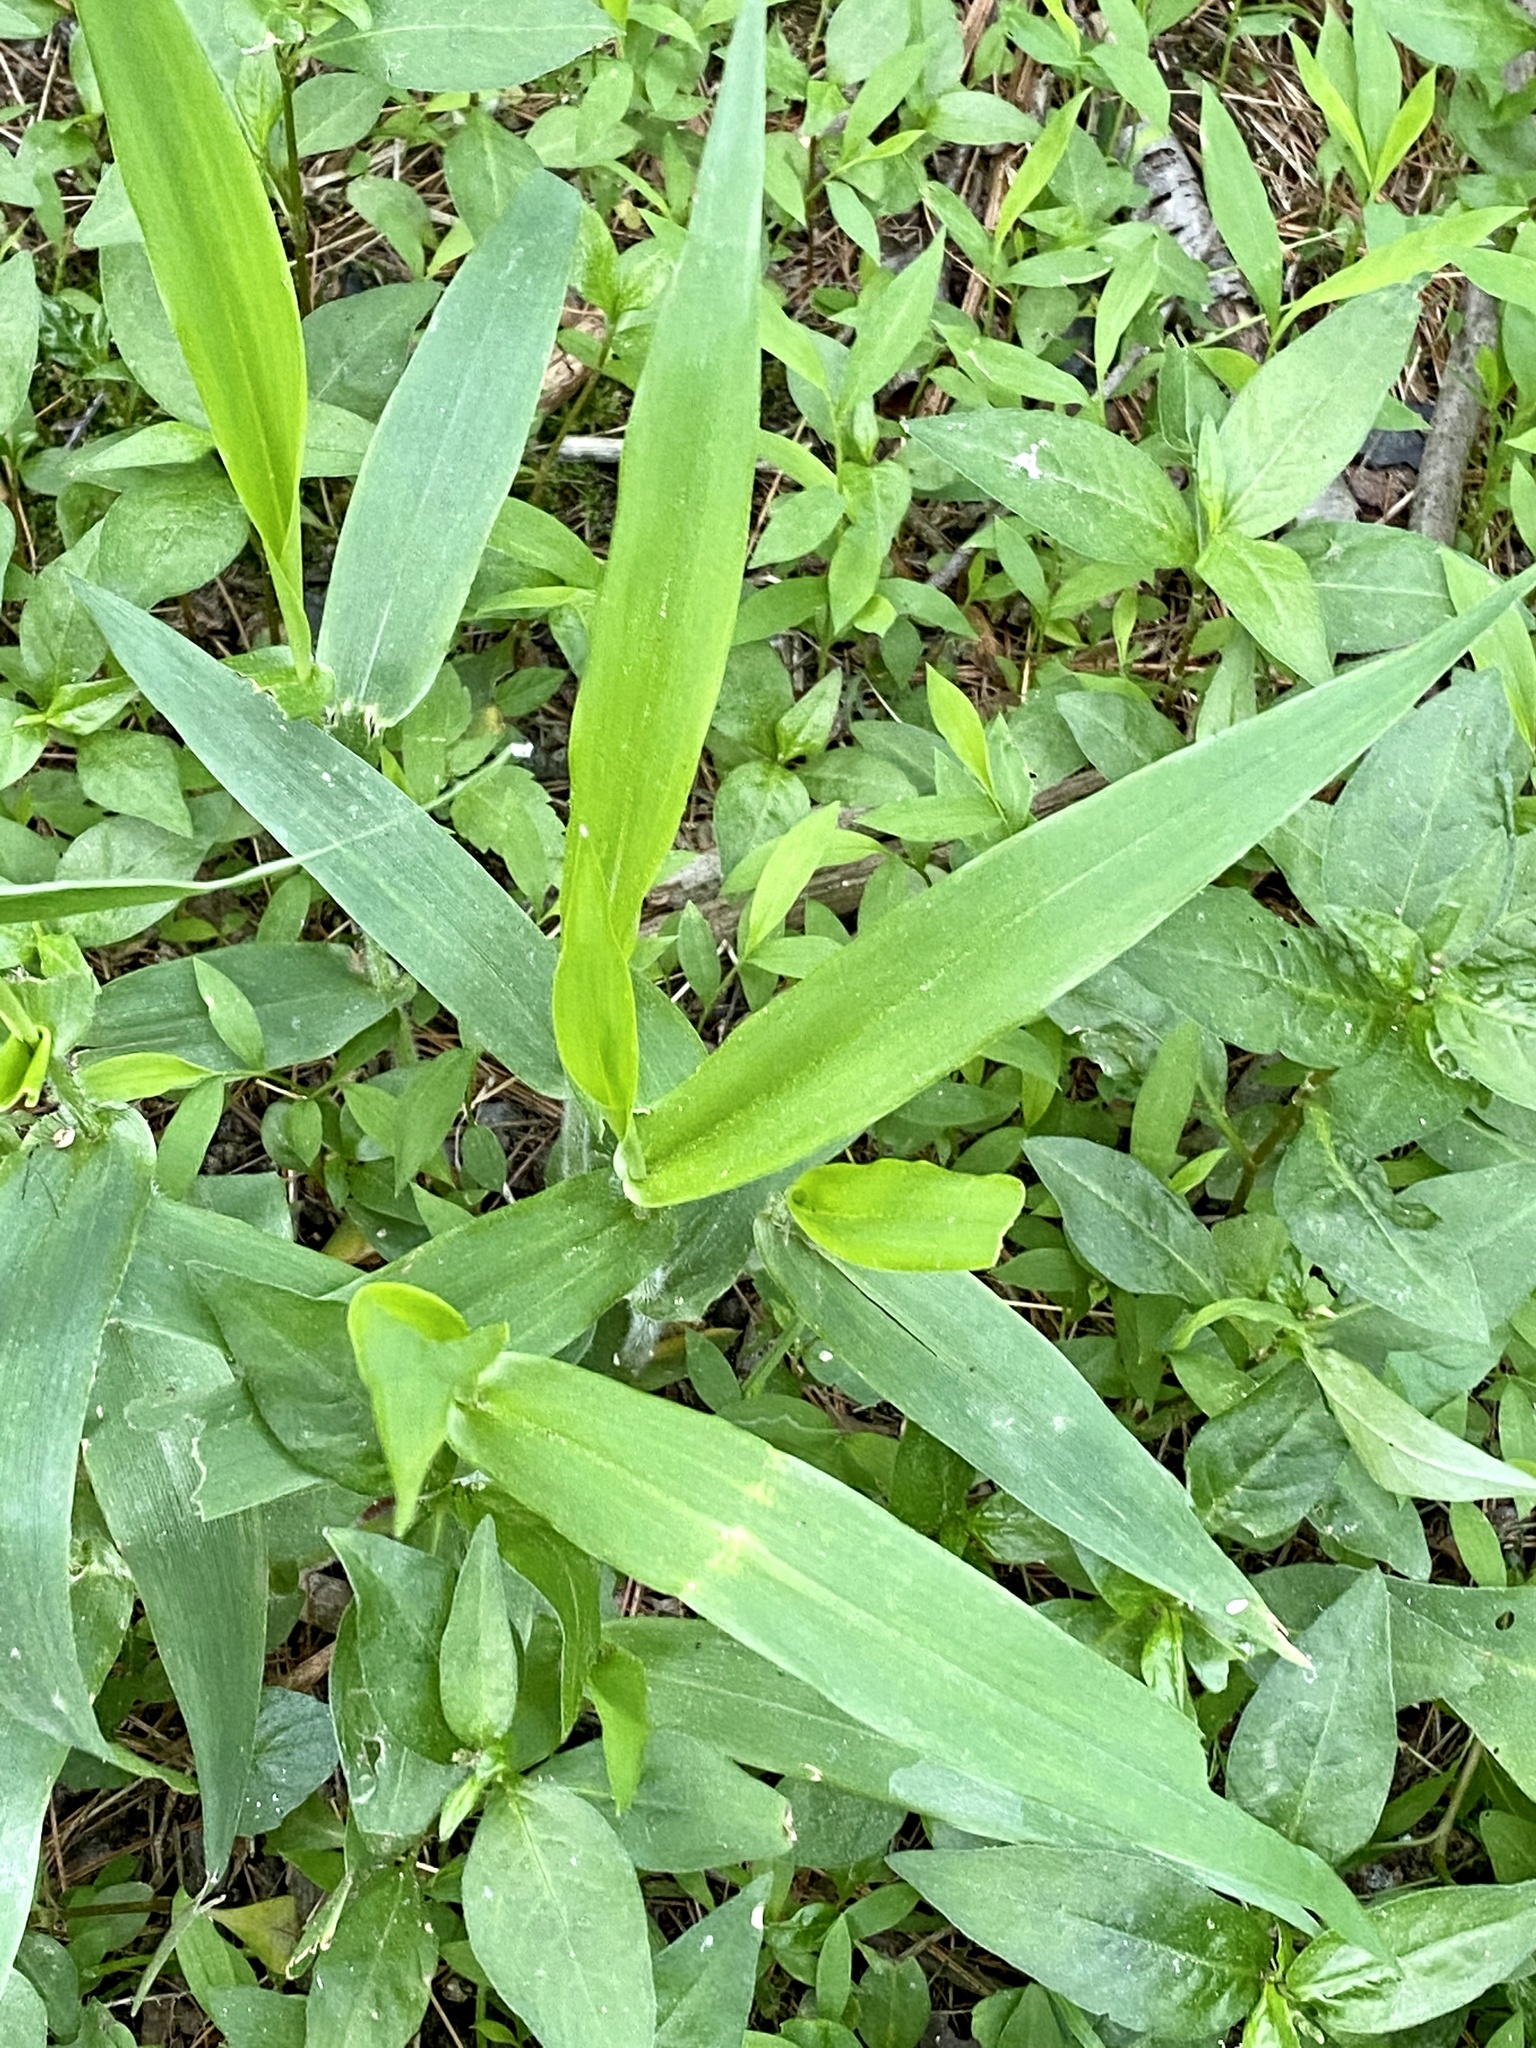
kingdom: Plantae
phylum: Tracheophyta
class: Liliopsida
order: Poales
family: Poaceae
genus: Dichanthelium
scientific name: Dichanthelium clandestinum
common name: Deer-tongue grass
